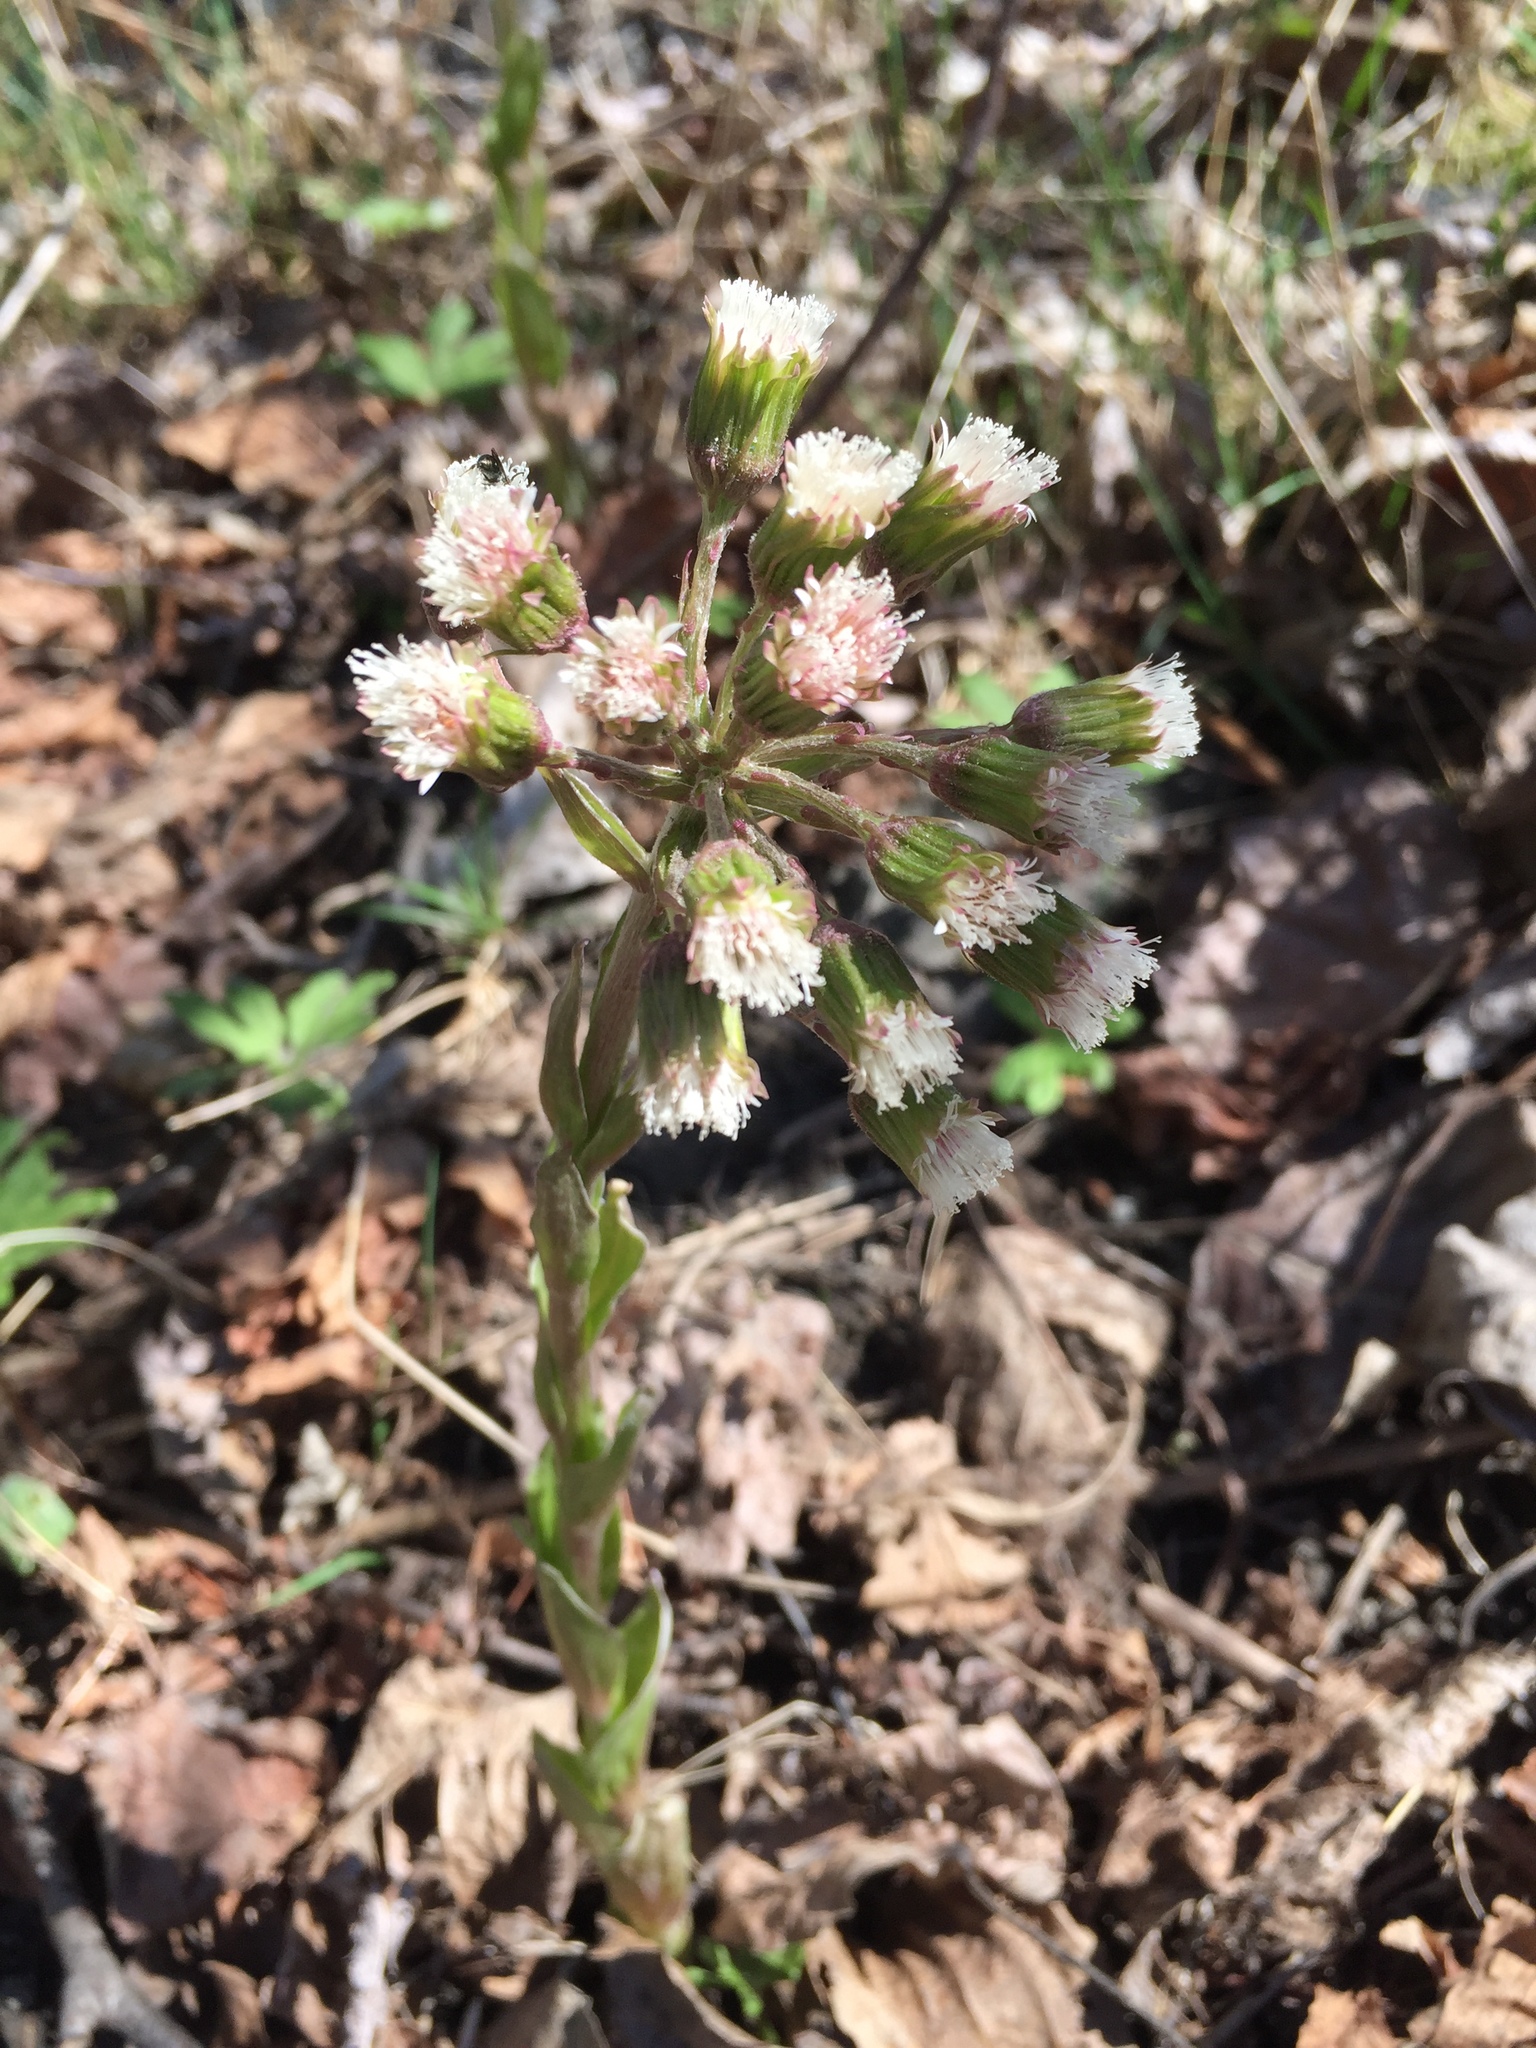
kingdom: Plantae
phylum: Tracheophyta
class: Magnoliopsida
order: Asterales
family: Asteraceae
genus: Petasites
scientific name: Petasites frigidus
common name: Arctic butterbur
